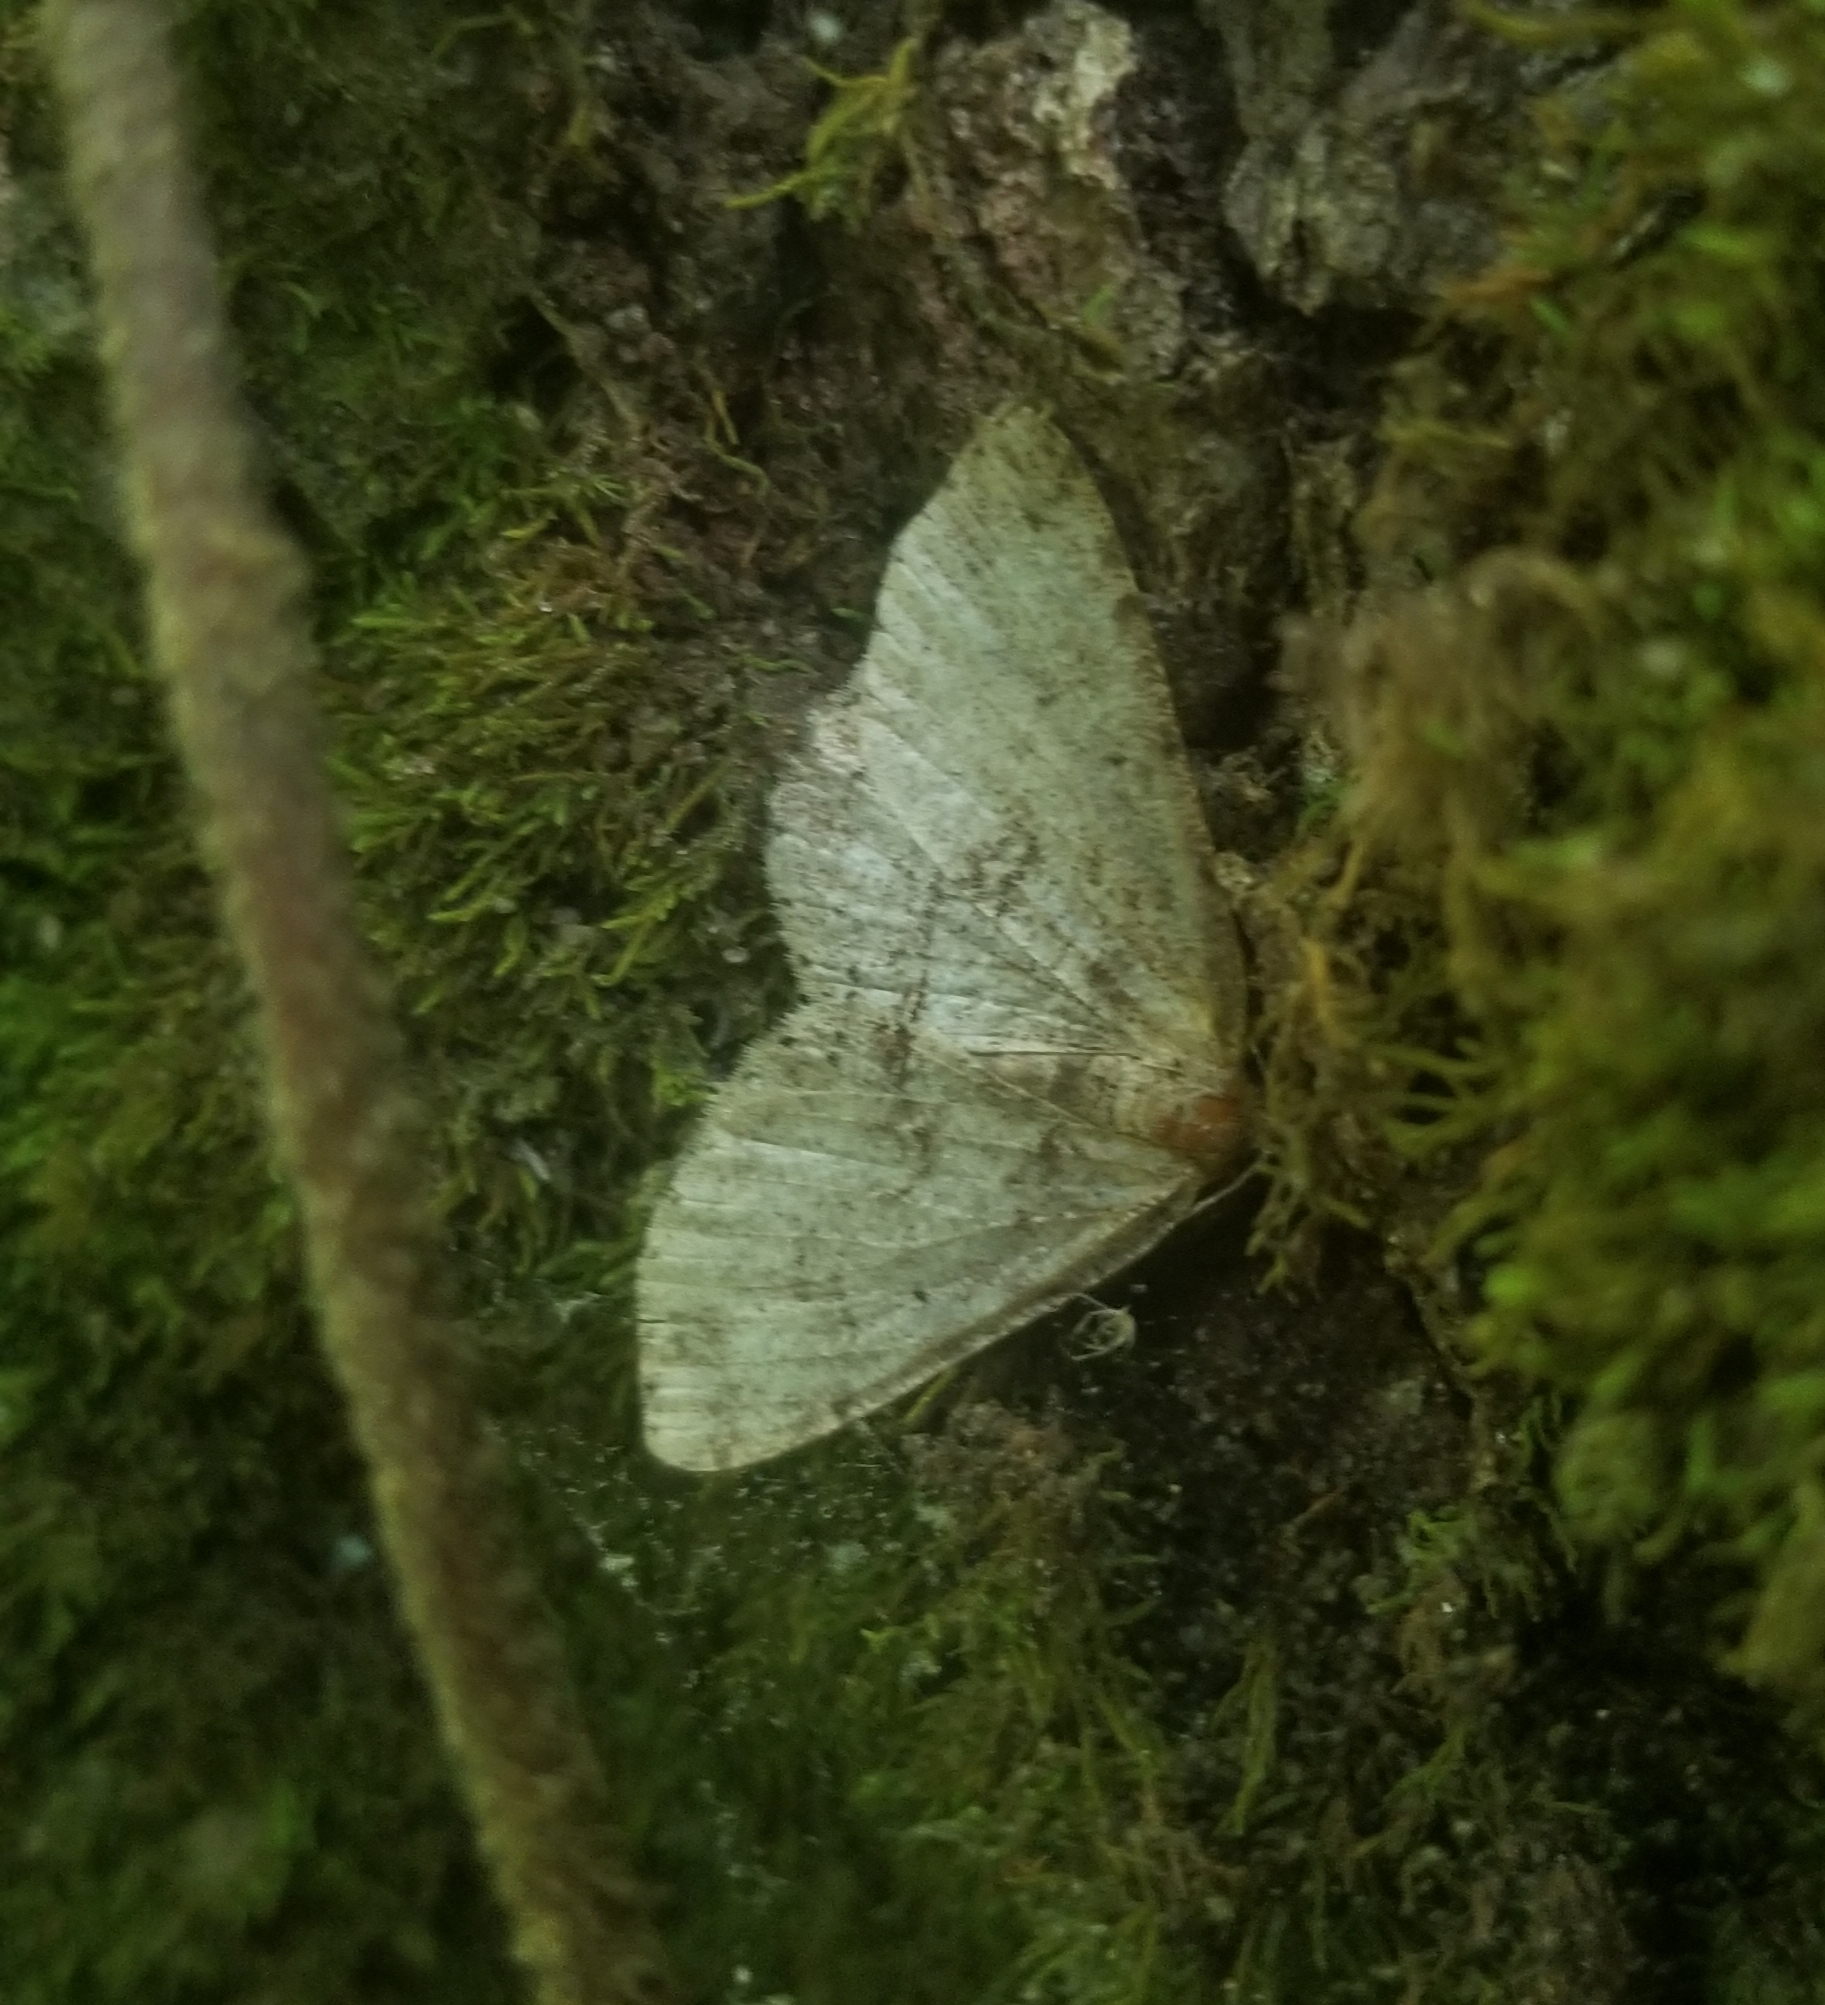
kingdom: Animalia
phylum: Arthropoda
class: Insecta
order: Lepidoptera
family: Geometridae
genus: Melanolophia
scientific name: Melanolophia signataria
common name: Signate melanolophia
